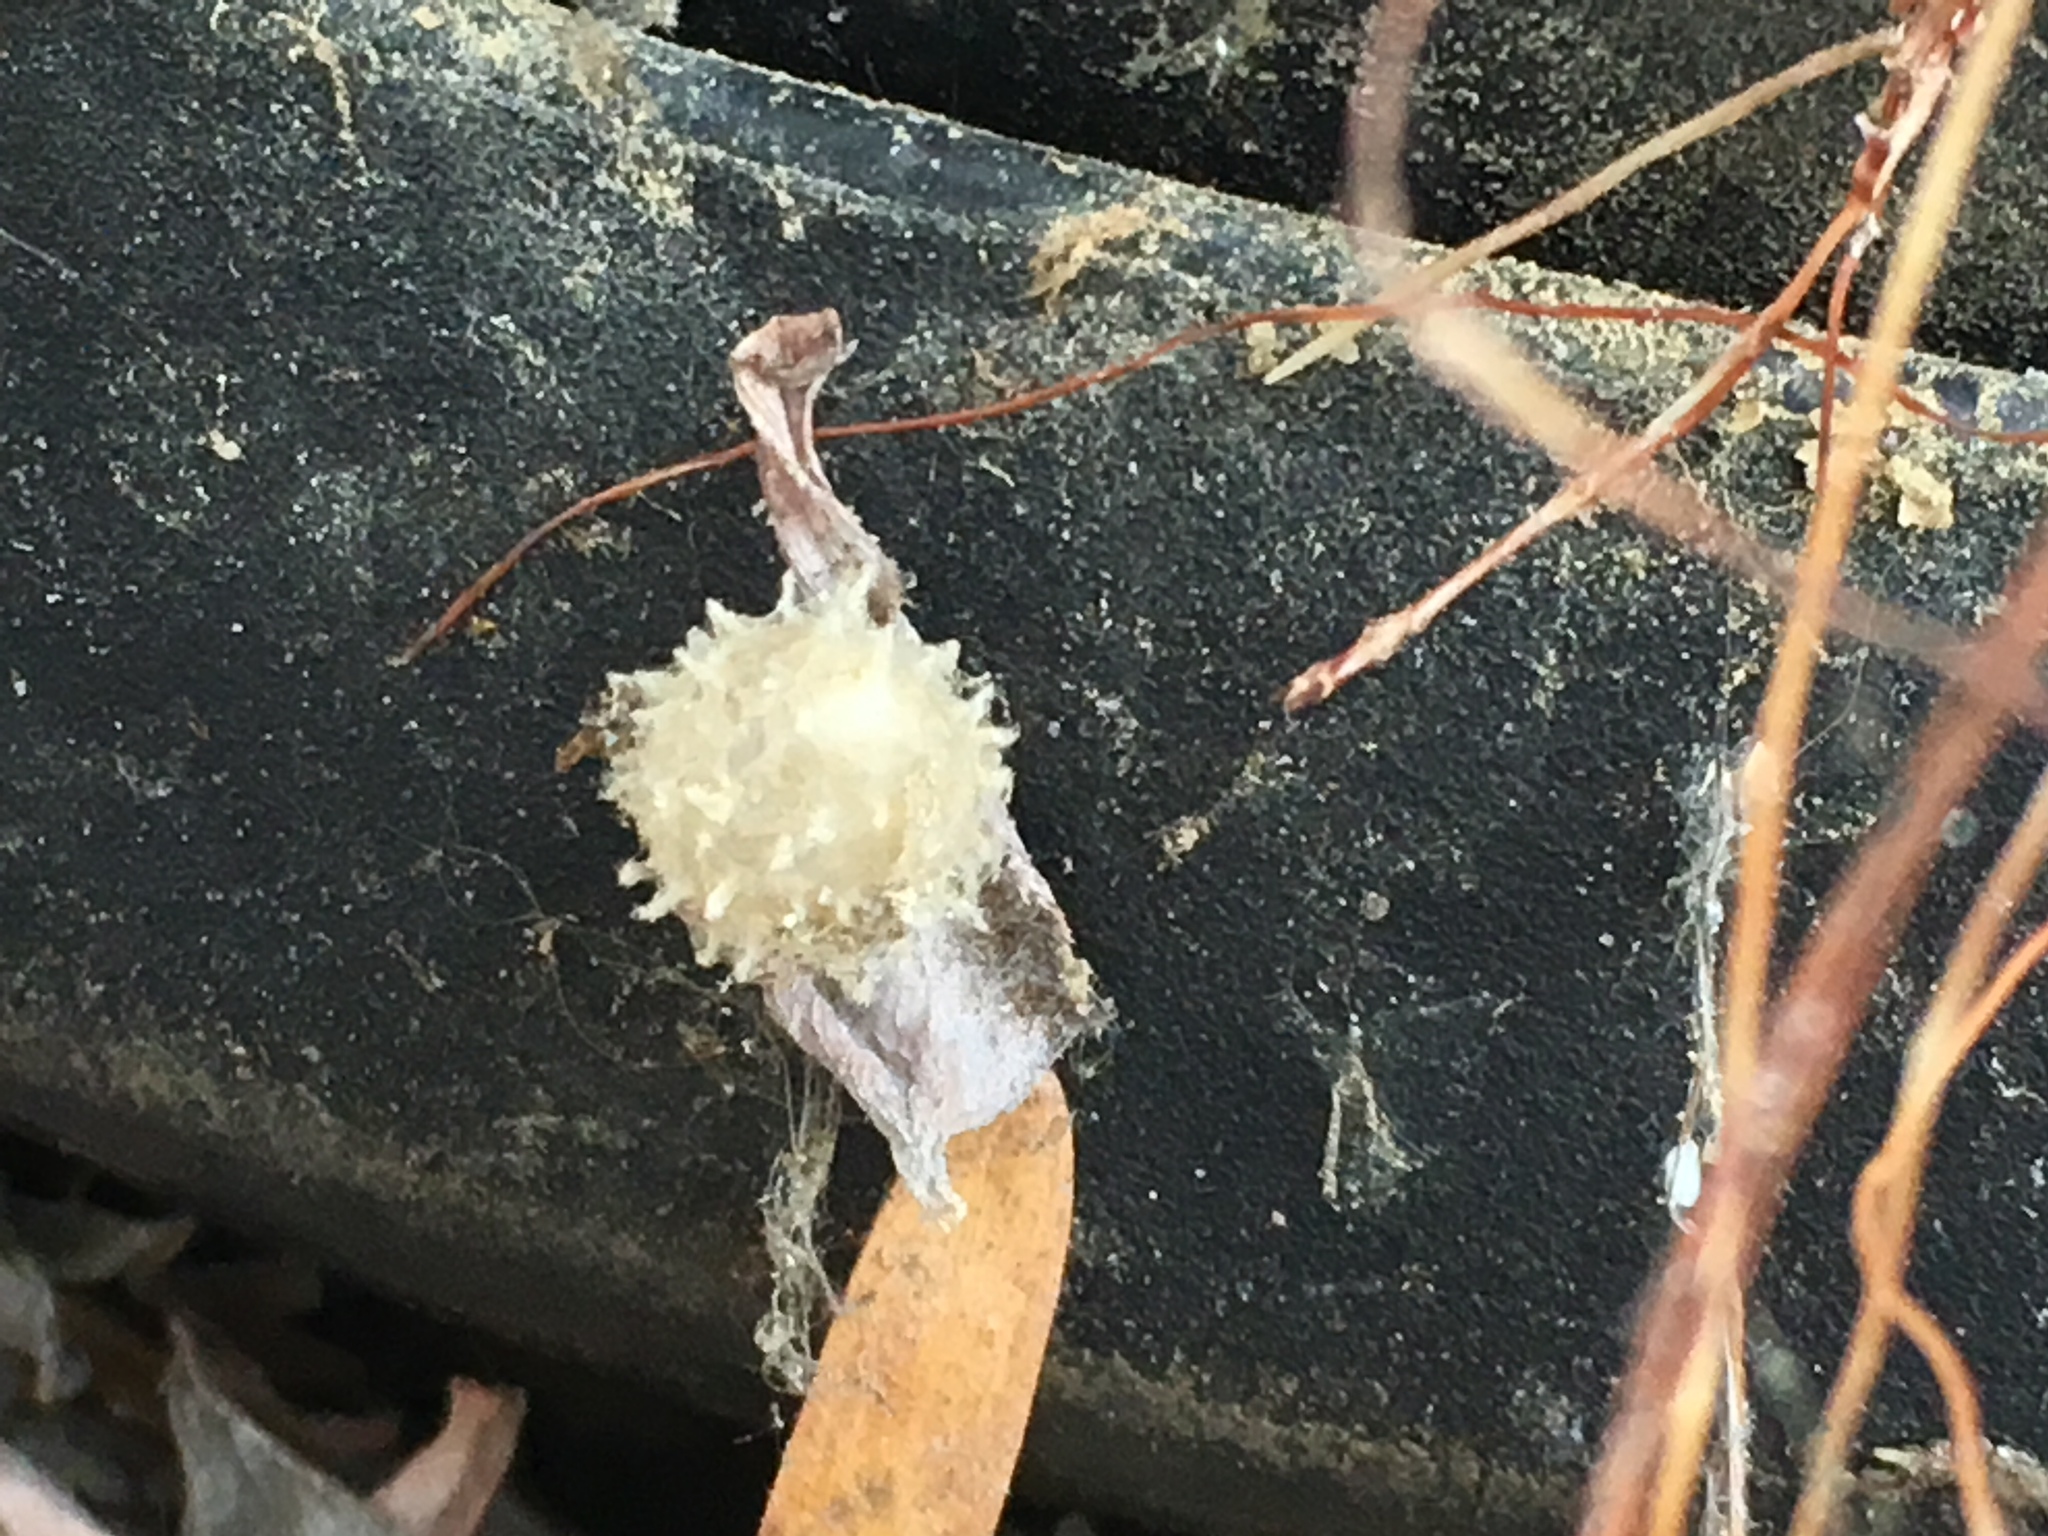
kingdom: Animalia
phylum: Arthropoda
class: Arachnida
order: Araneae
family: Theridiidae
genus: Latrodectus
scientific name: Latrodectus geometricus
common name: Brown widow spider
